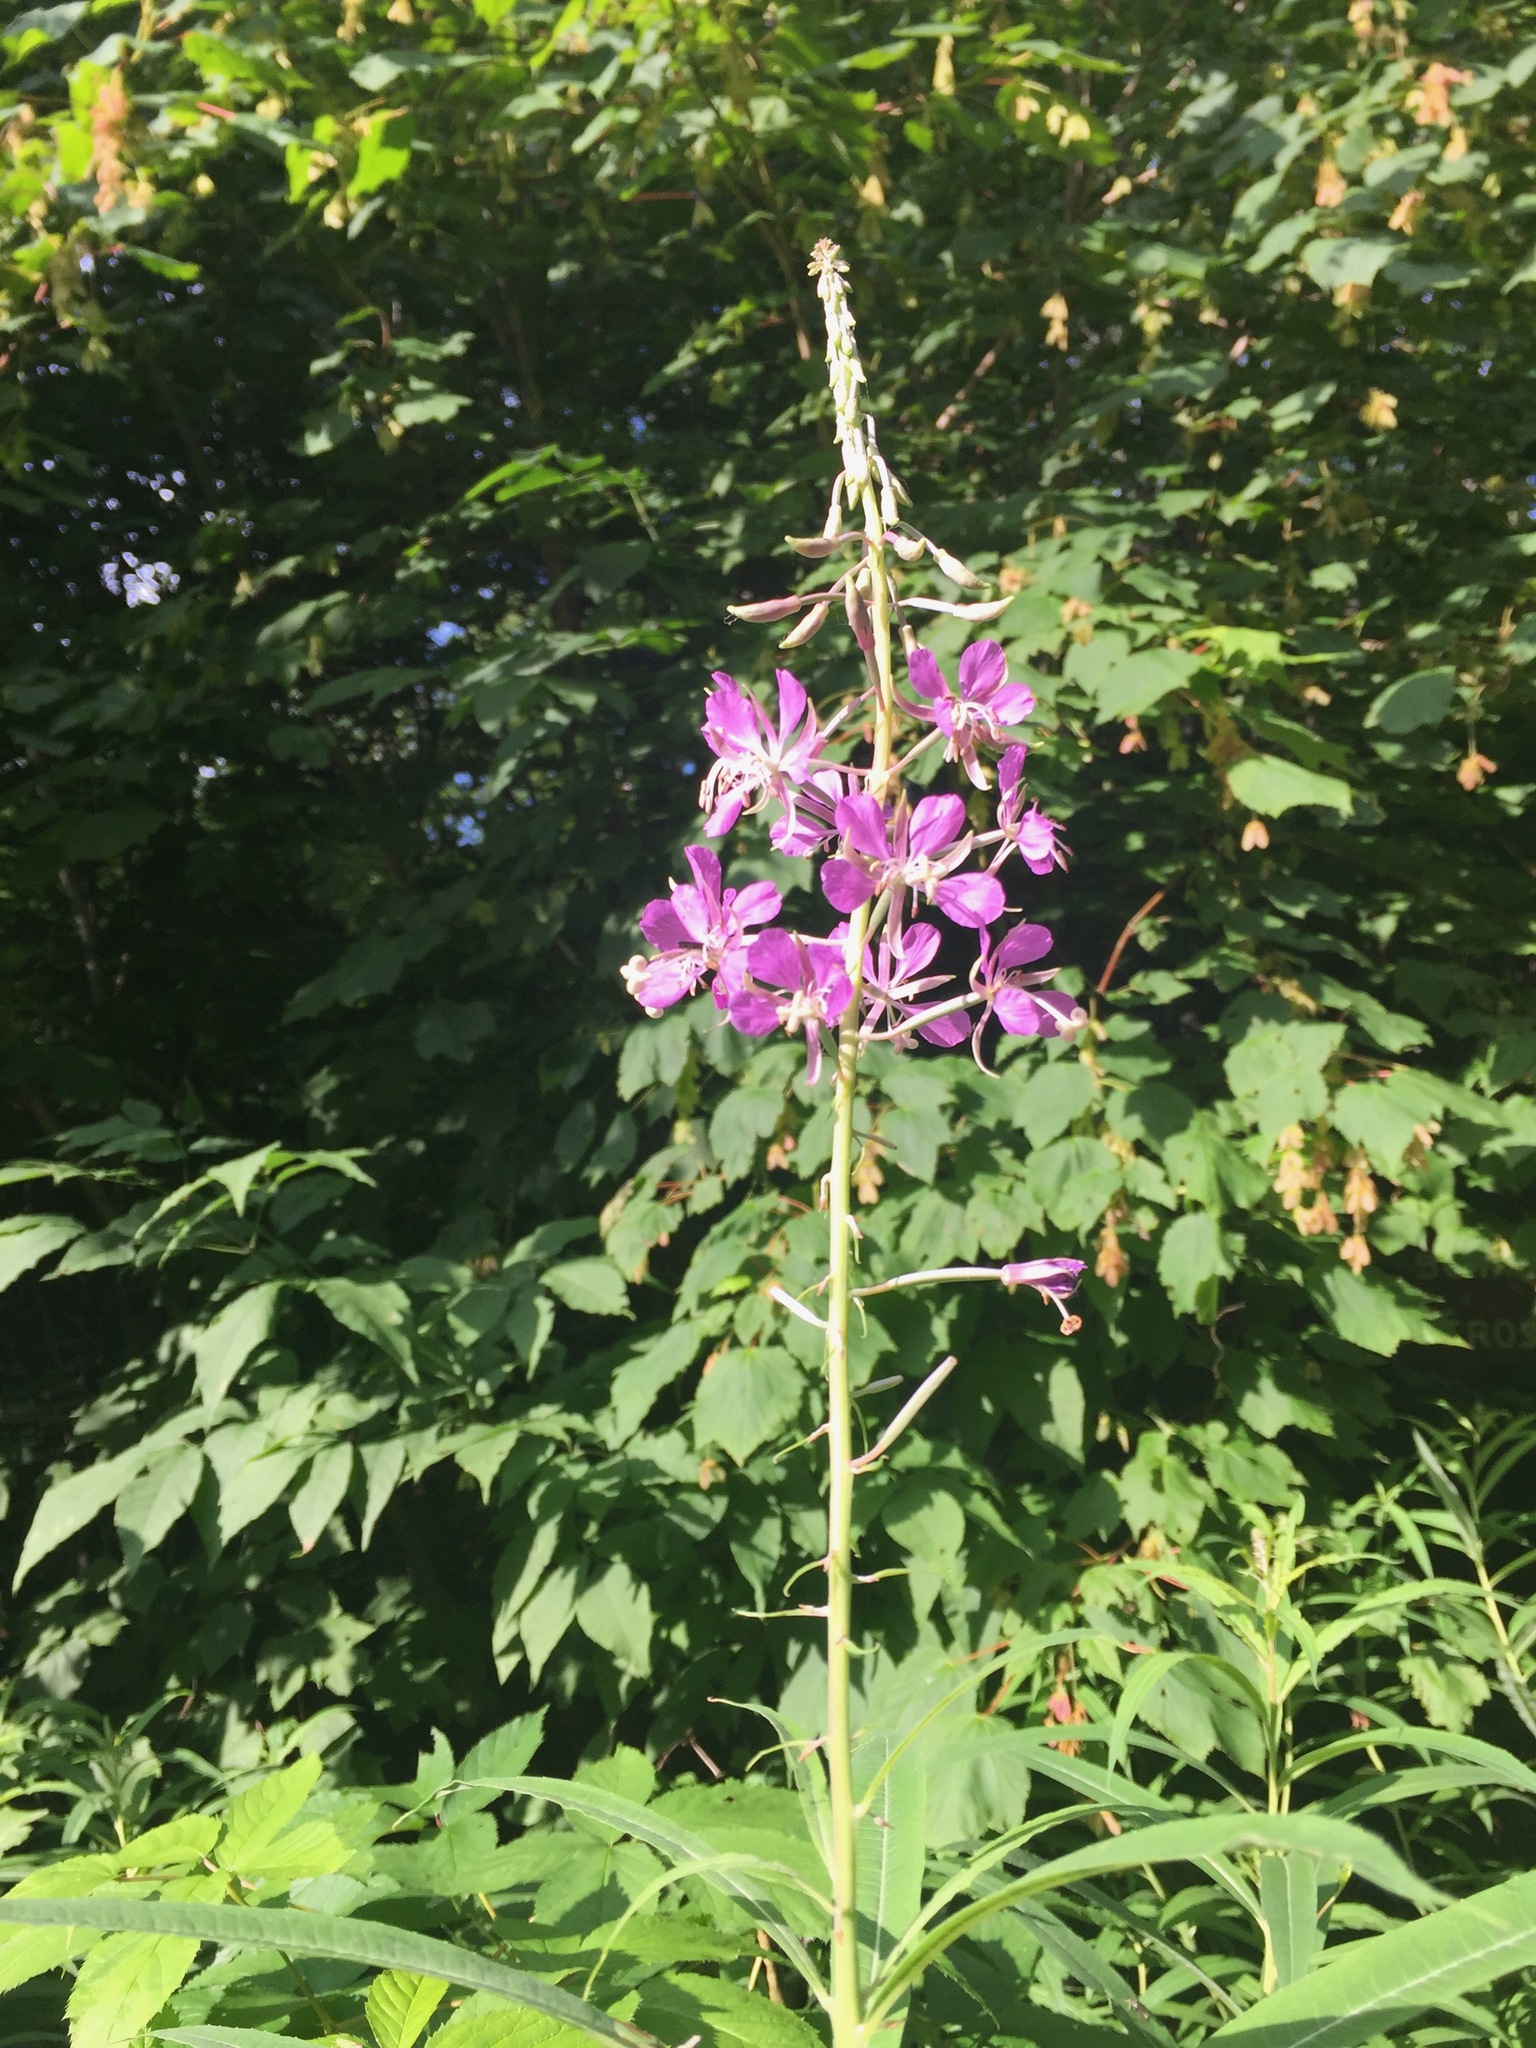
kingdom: Plantae
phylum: Tracheophyta
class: Magnoliopsida
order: Myrtales
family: Onagraceae
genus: Chamaenerion
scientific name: Chamaenerion angustifolium
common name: Fireweed
